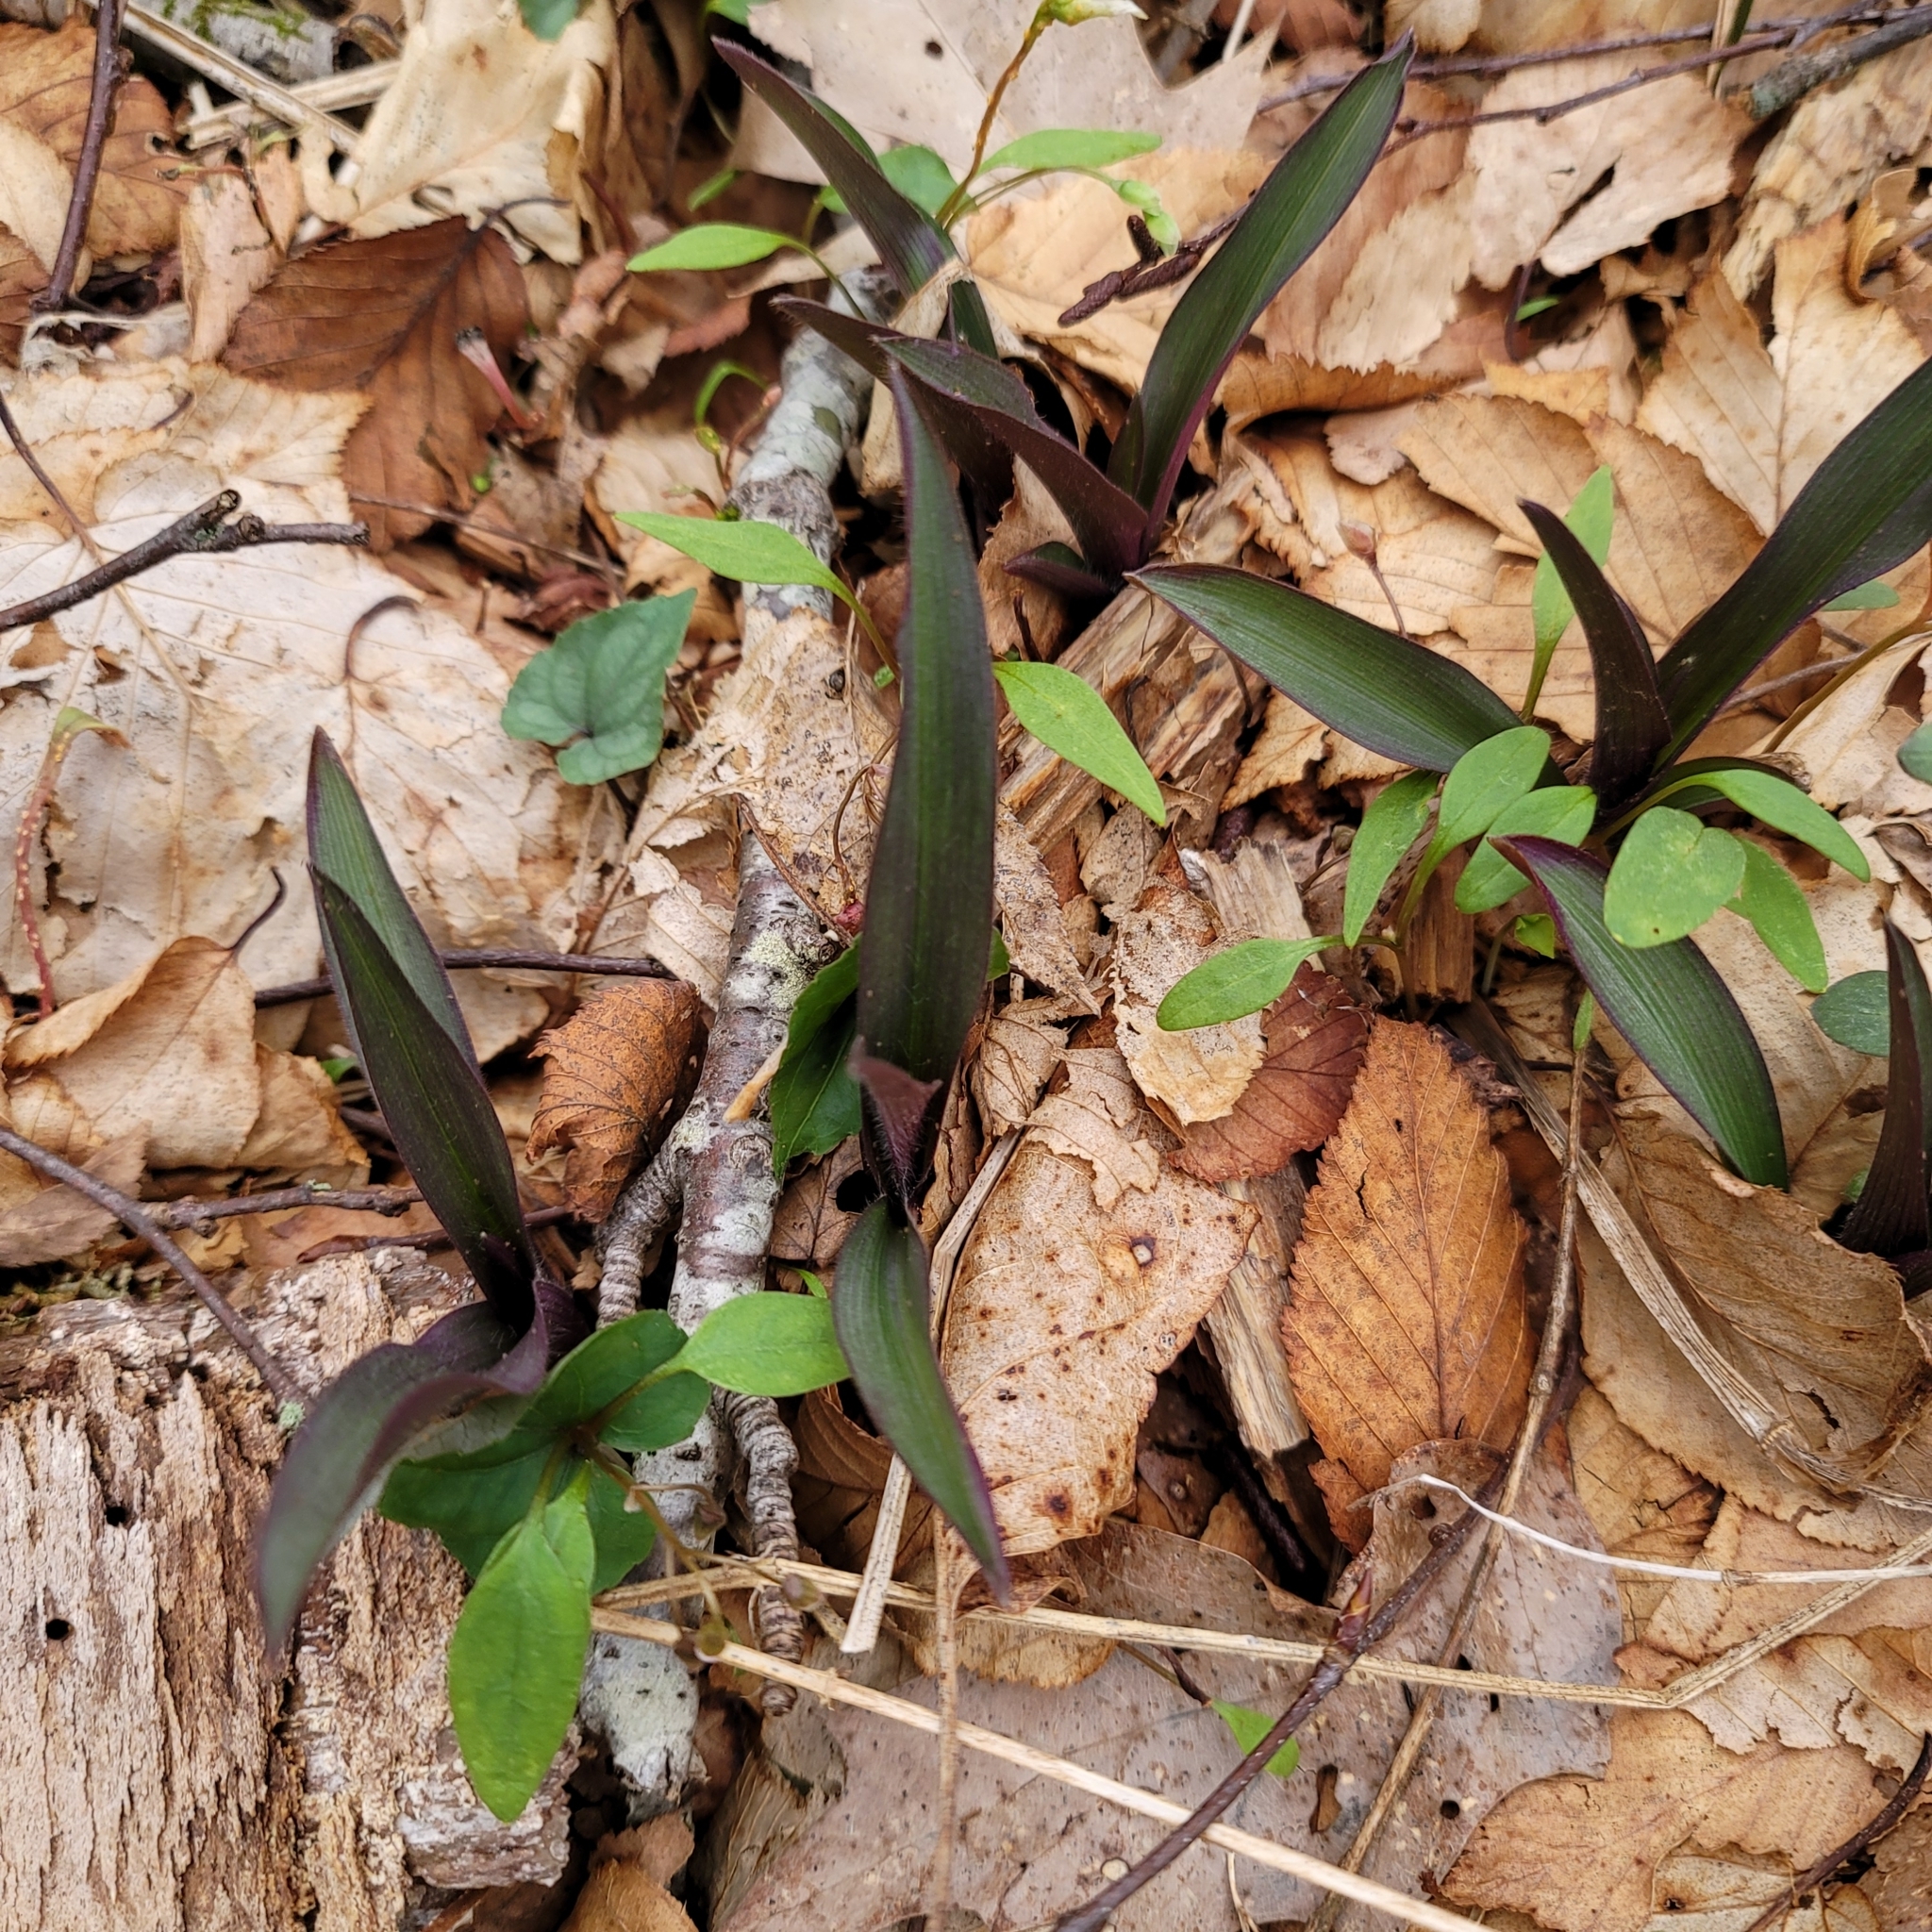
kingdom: Plantae
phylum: Tracheophyta
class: Liliopsida
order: Commelinales
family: Commelinaceae
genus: Tradescantia
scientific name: Tradescantia pallida
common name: Purpleheart
